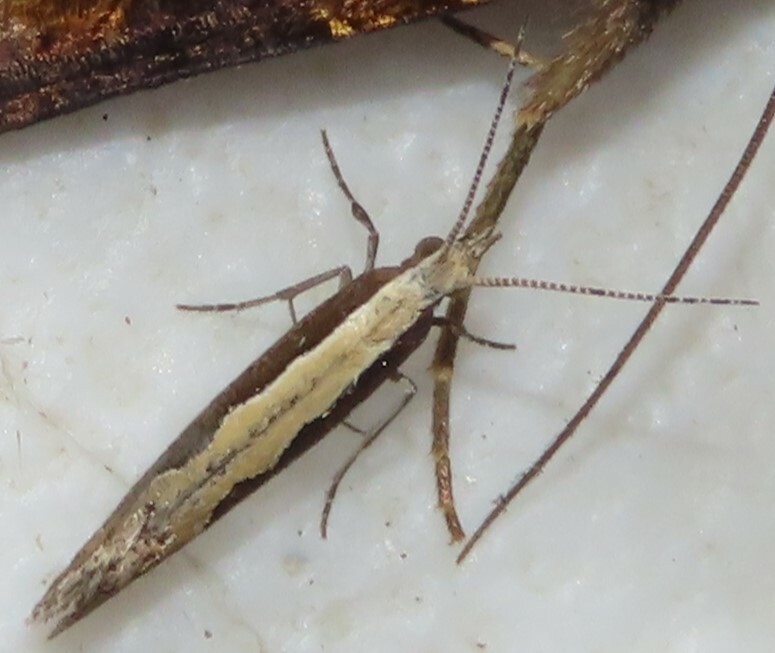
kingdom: Animalia
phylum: Arthropoda
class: Insecta
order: Lepidoptera
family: Plutellidae
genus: Plutella
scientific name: Plutella xylostella
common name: Diamond-back moth
